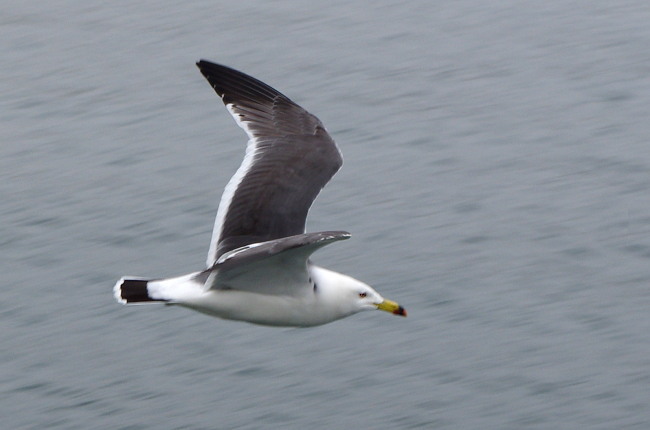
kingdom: Animalia
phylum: Chordata
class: Aves
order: Charadriiformes
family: Laridae
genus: Larus
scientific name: Larus crassirostris
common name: Black-tailed gull
